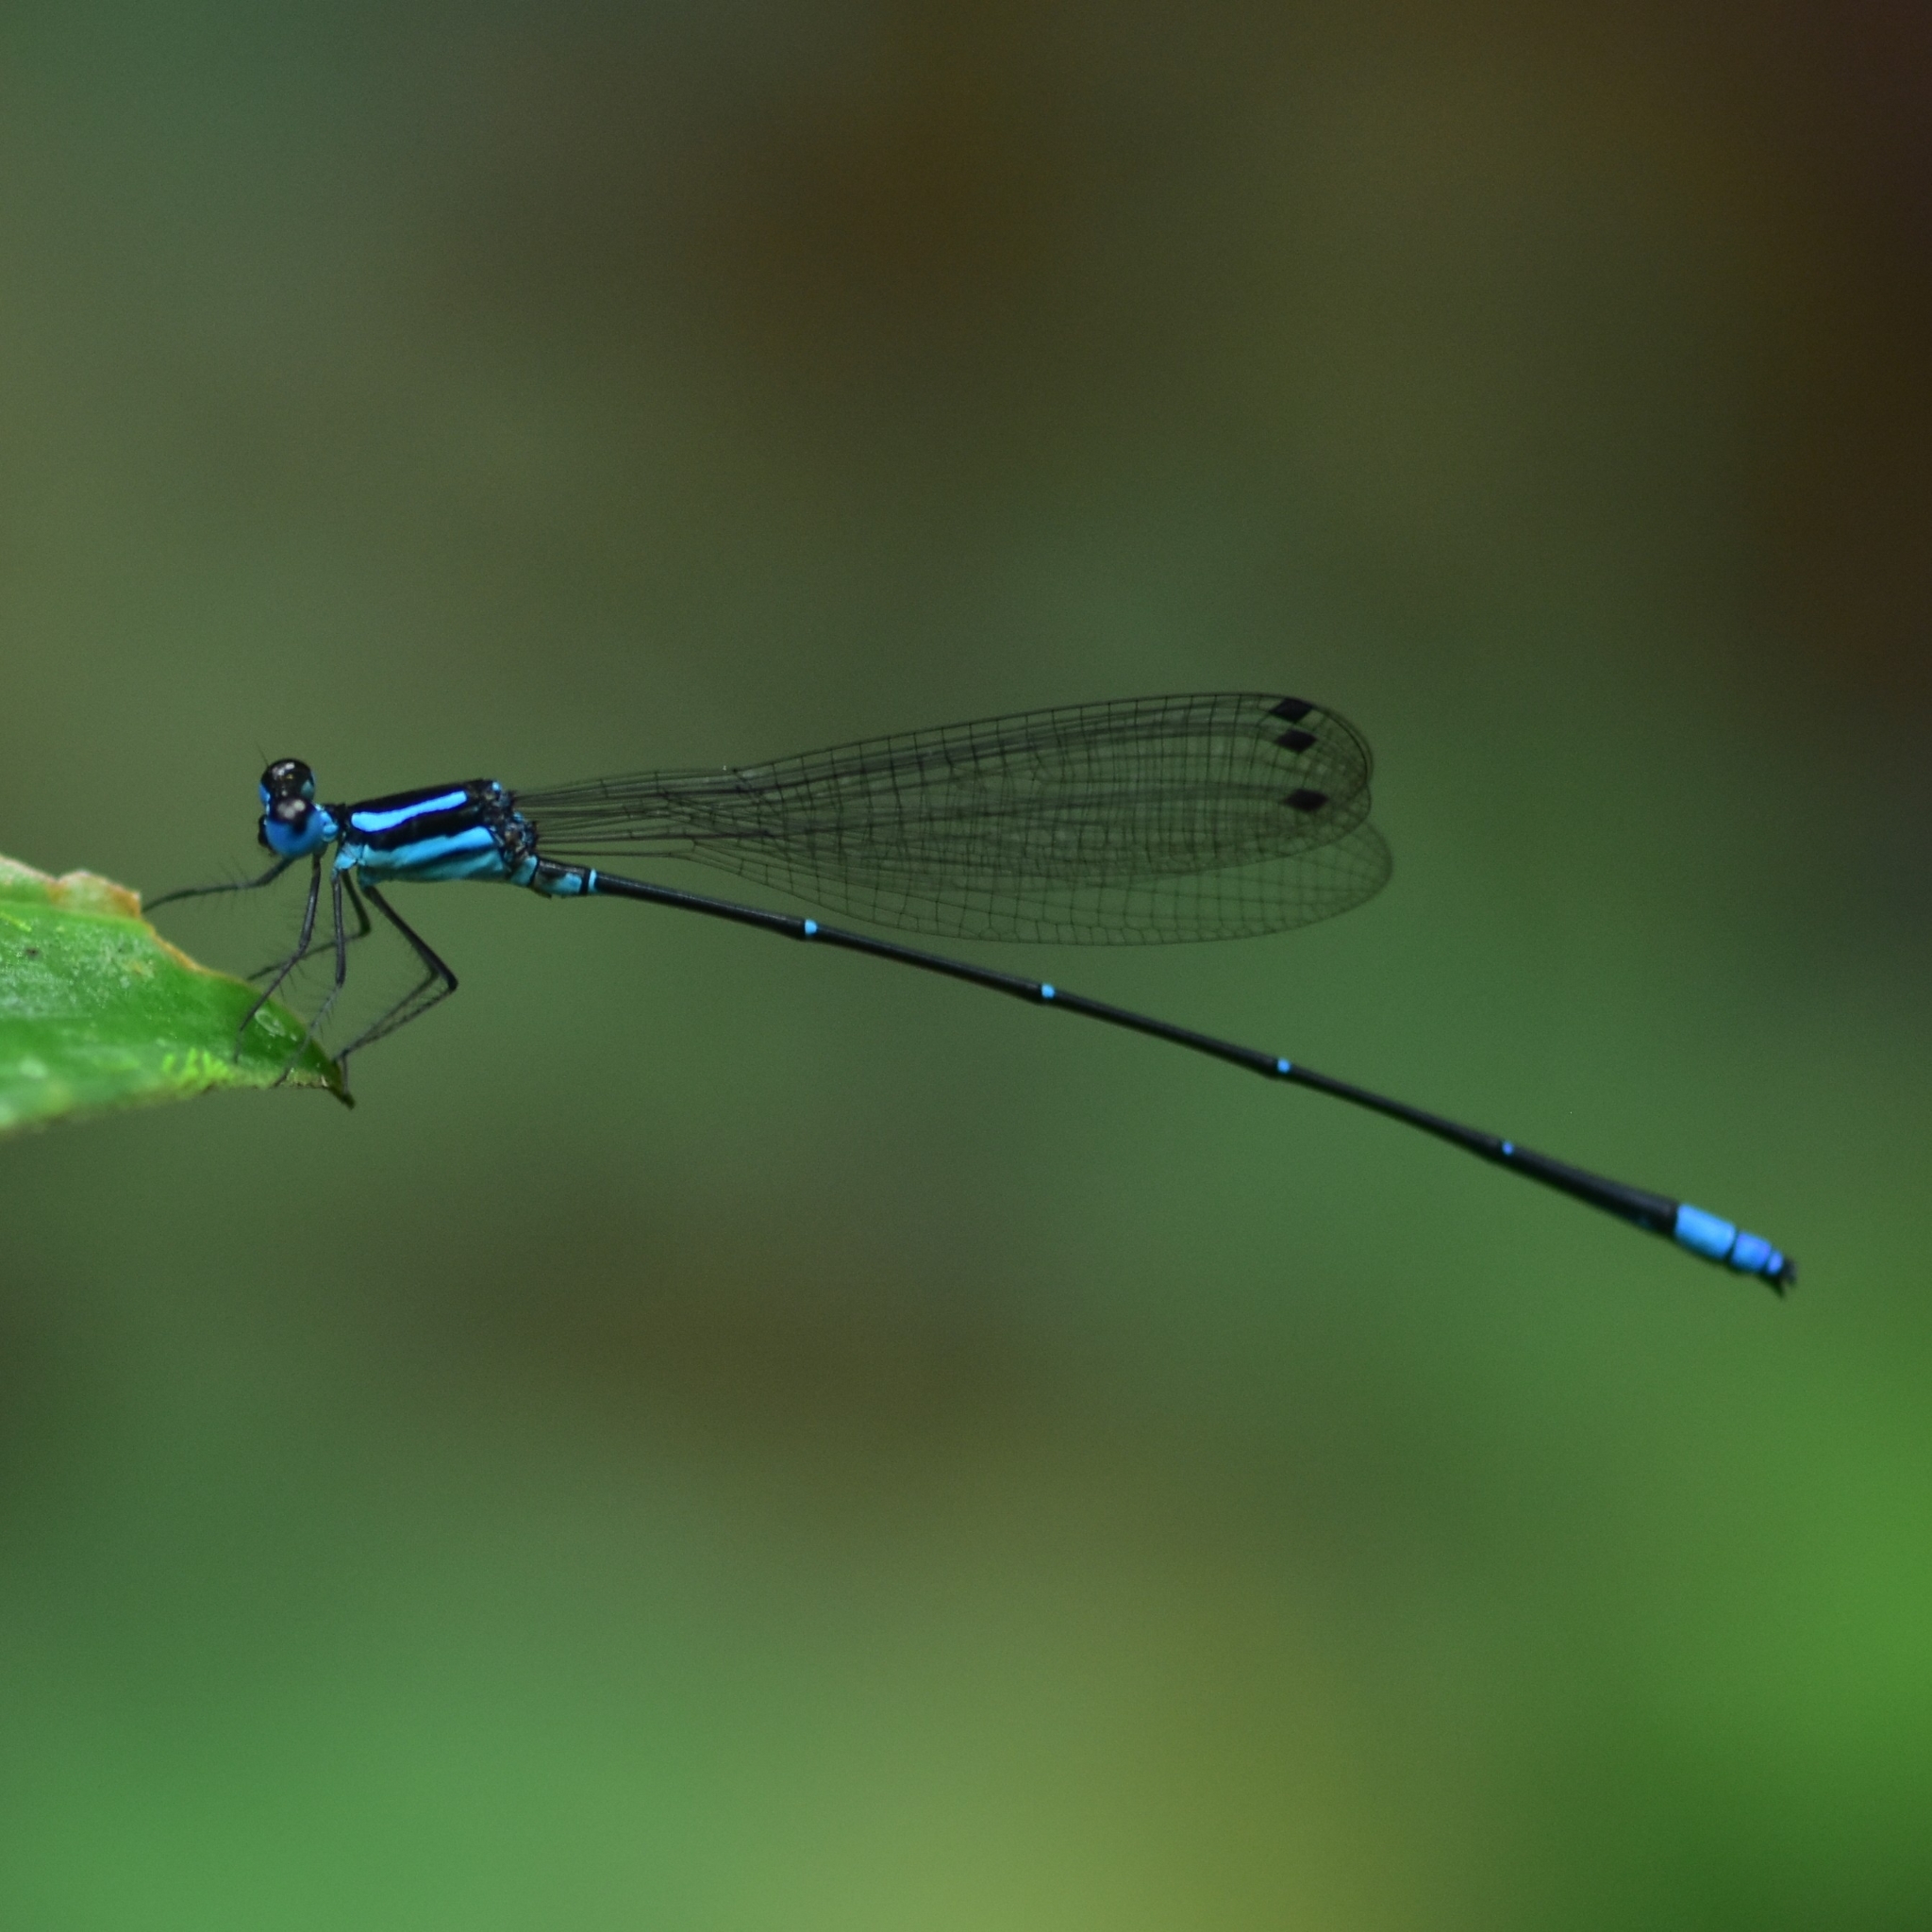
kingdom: Animalia
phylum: Arthropoda
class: Insecta
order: Odonata
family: Platycnemididae
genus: Caconeura
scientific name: Caconeura risi
